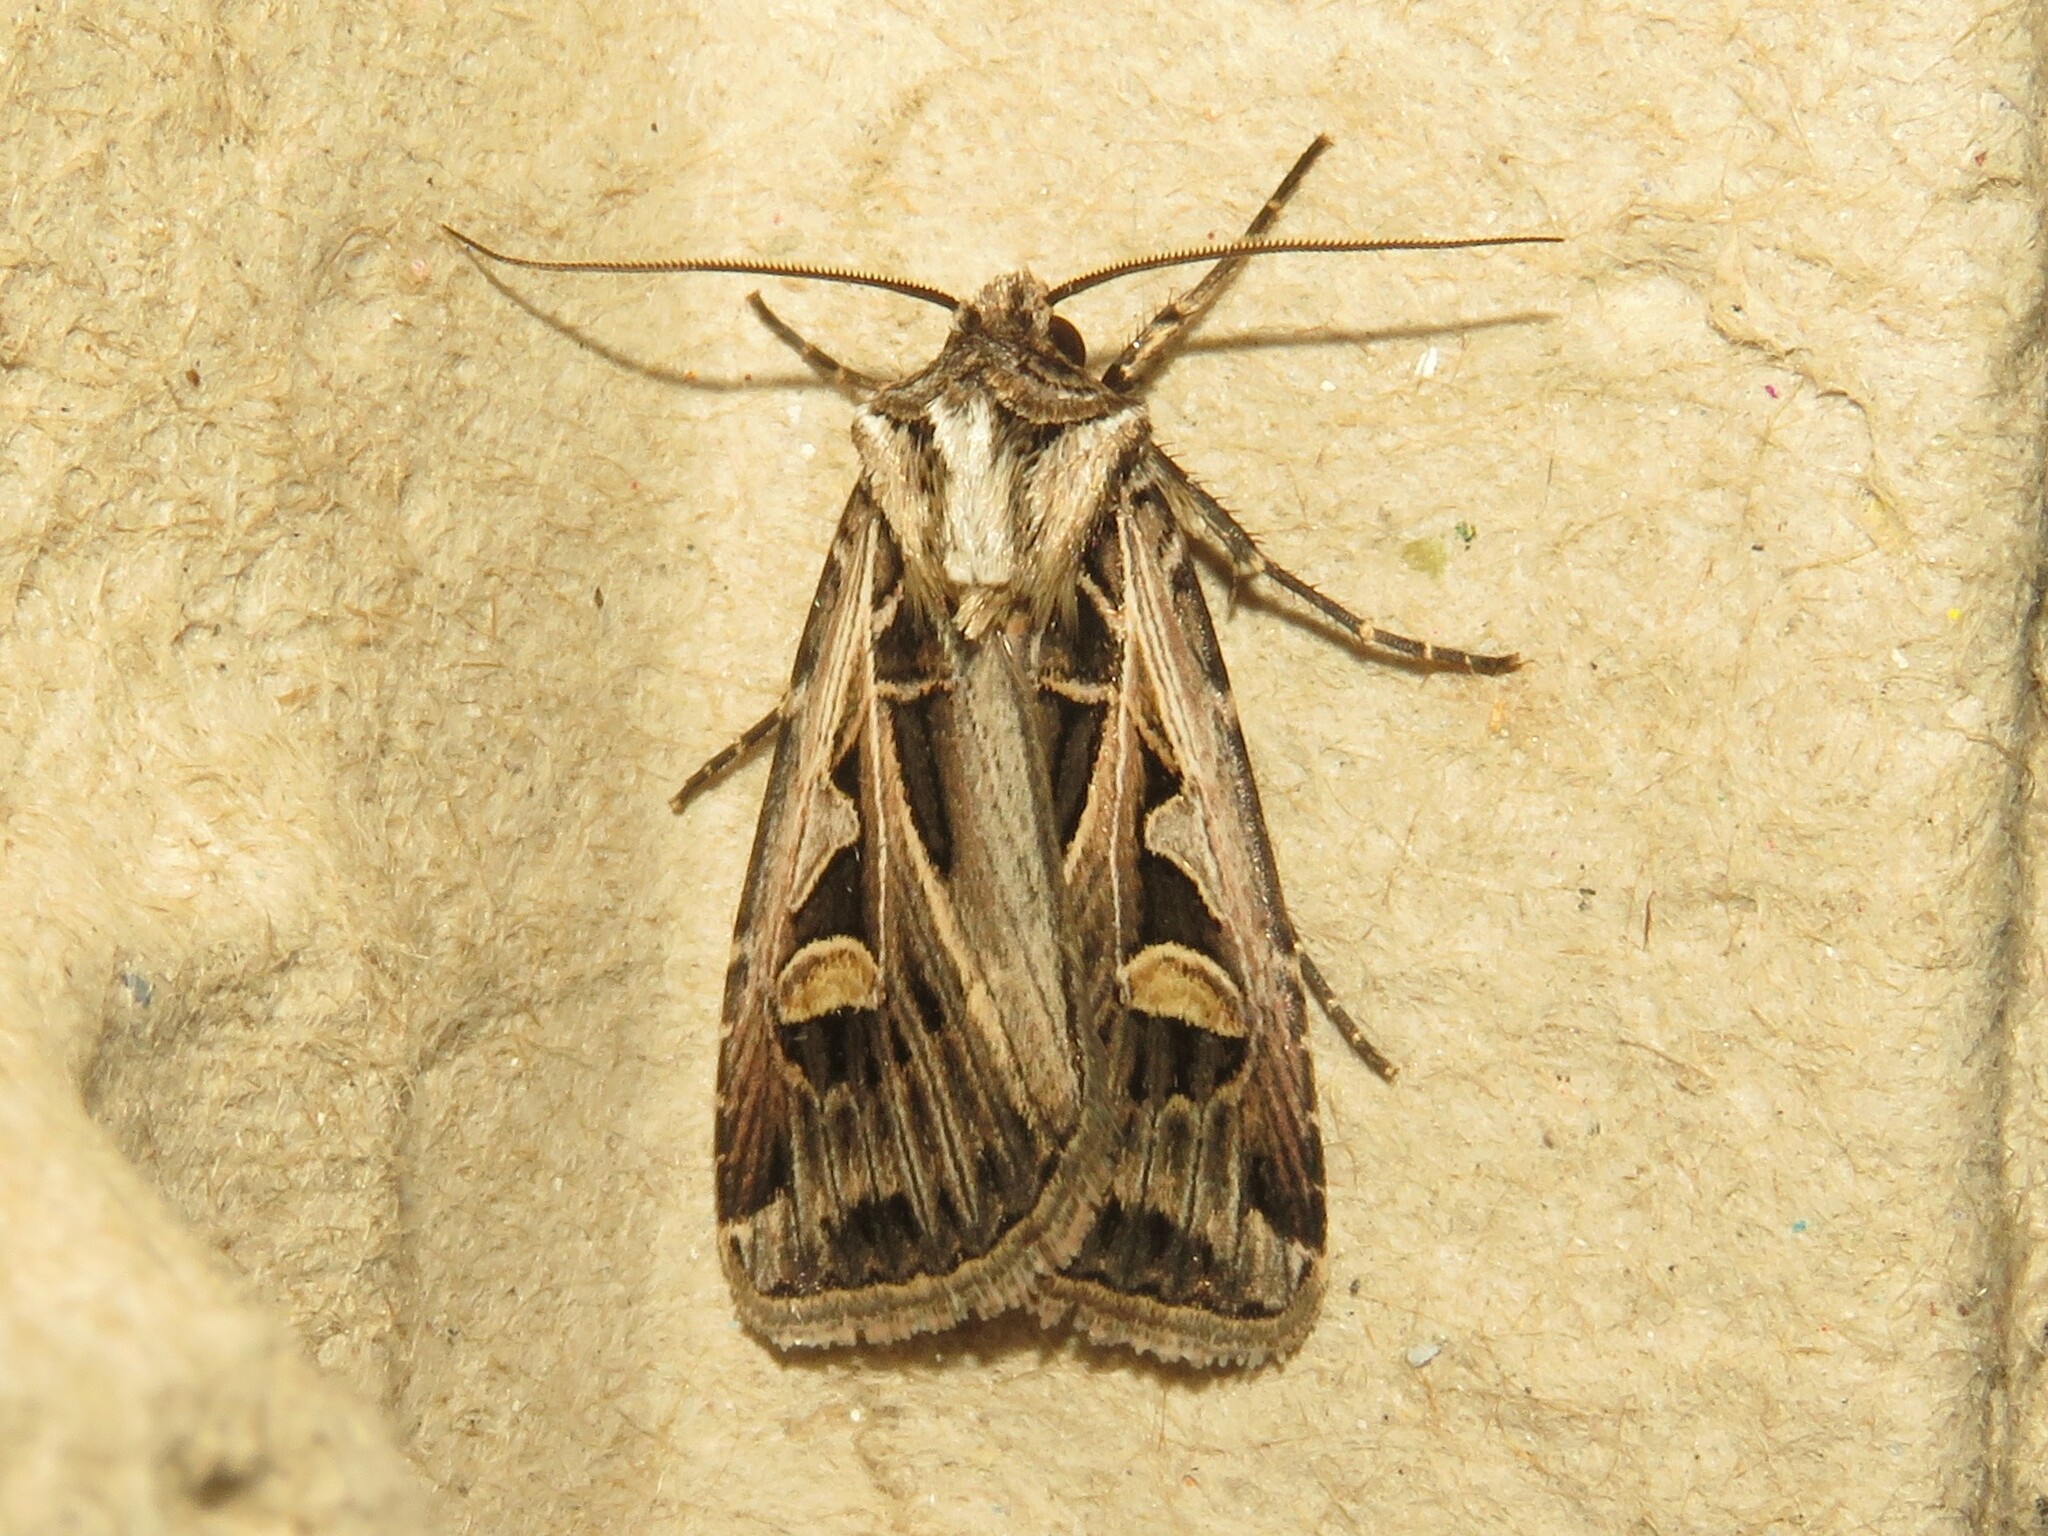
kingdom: Animalia
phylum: Arthropoda
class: Insecta
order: Lepidoptera
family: Noctuidae
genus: Feltia
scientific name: Feltia jaculifera
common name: Dingy cutworm moth
